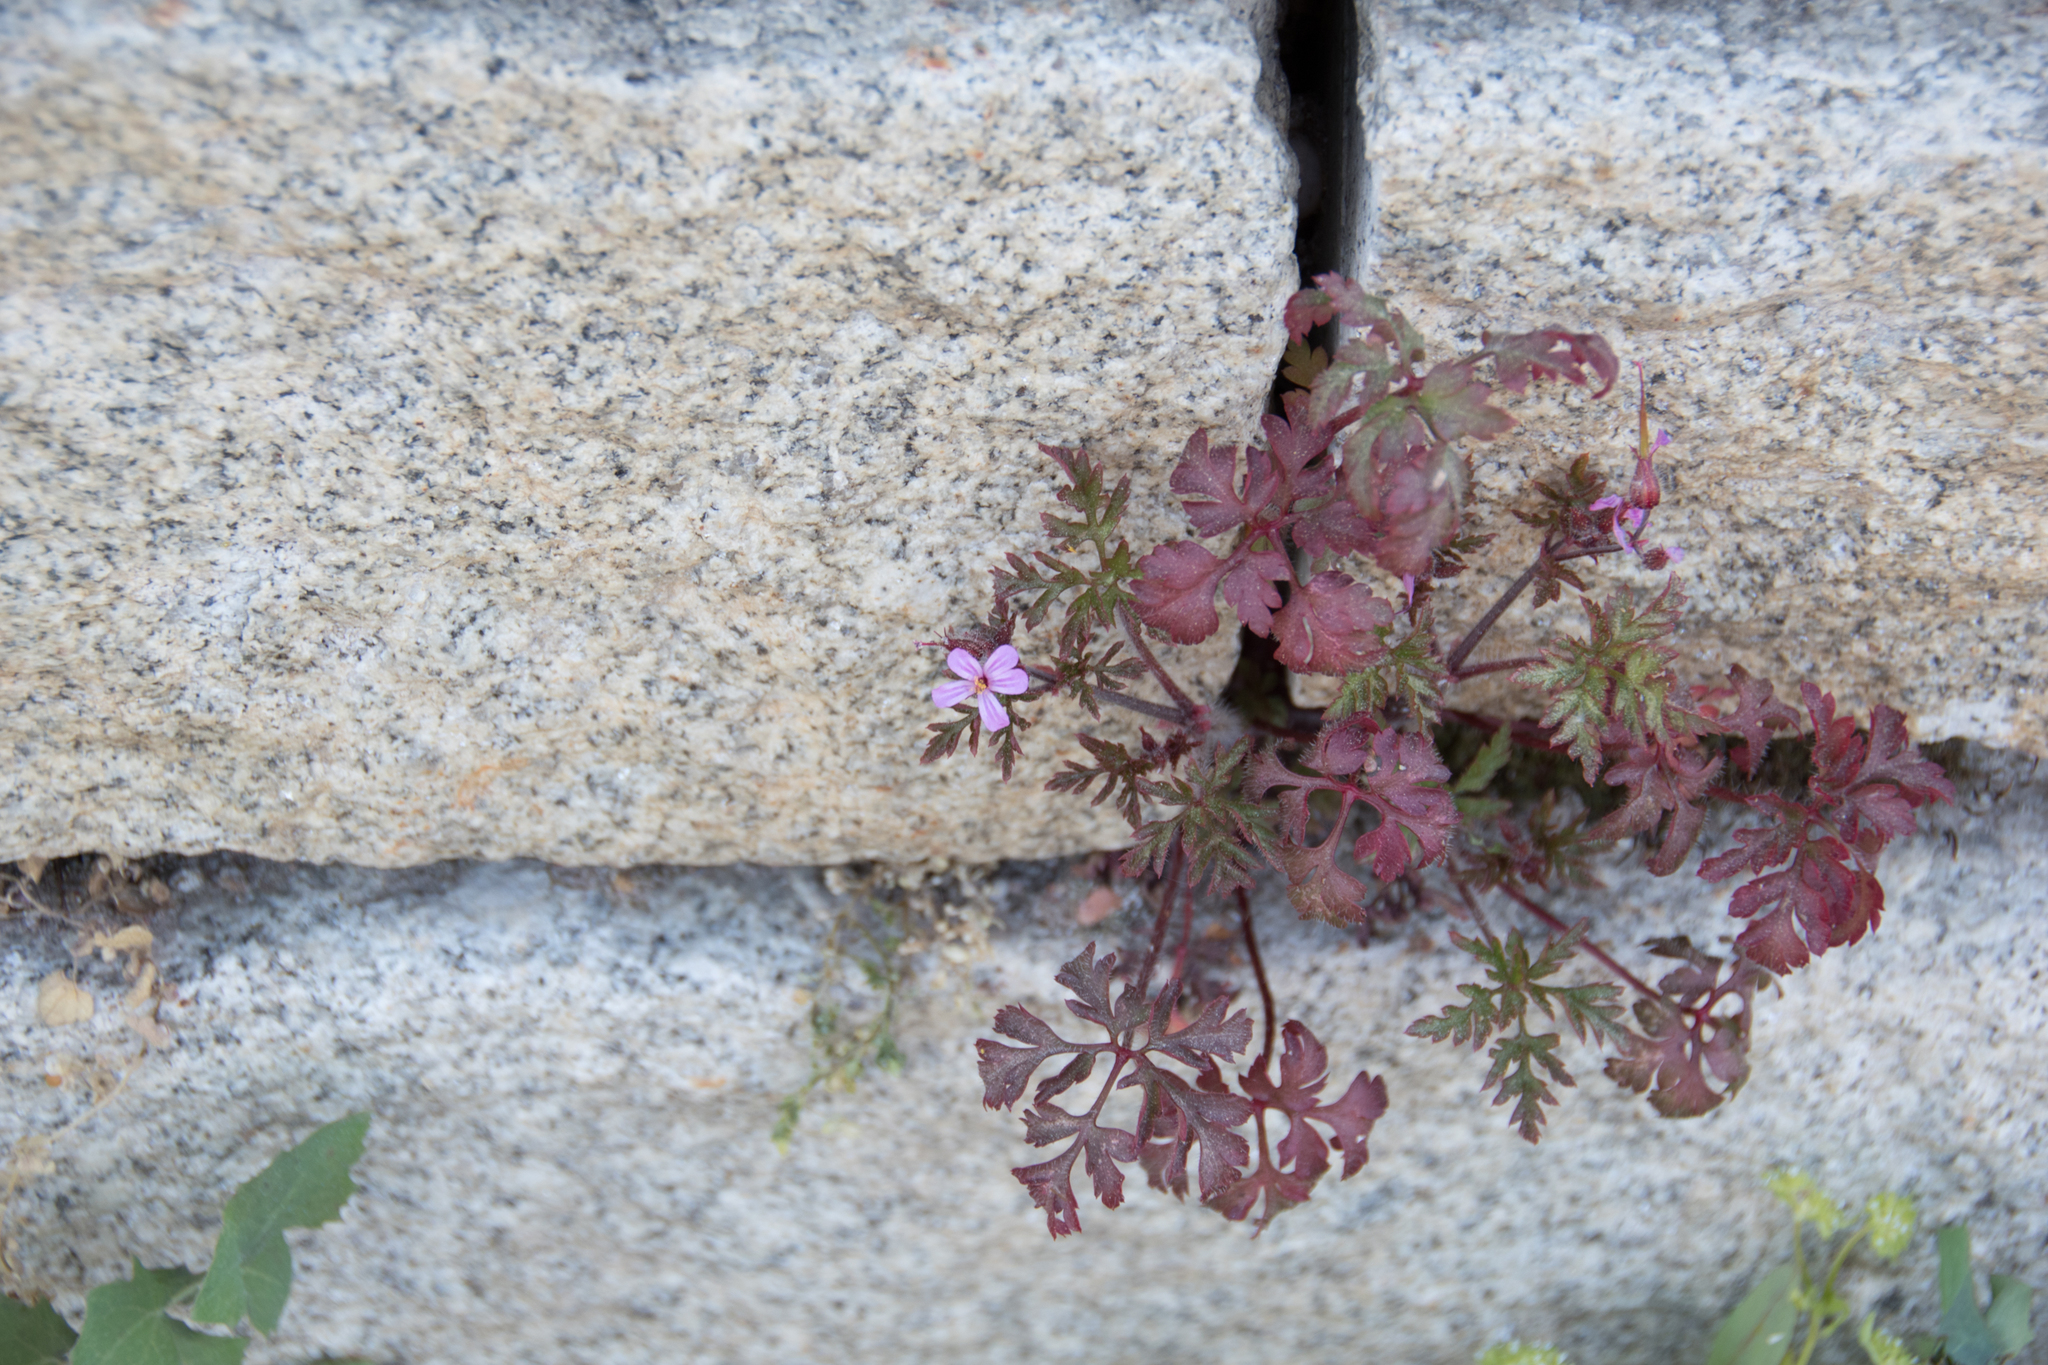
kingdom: Plantae
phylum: Tracheophyta
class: Magnoliopsida
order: Geraniales
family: Geraniaceae
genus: Geranium
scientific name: Geranium robertianum
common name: Herb-robert
